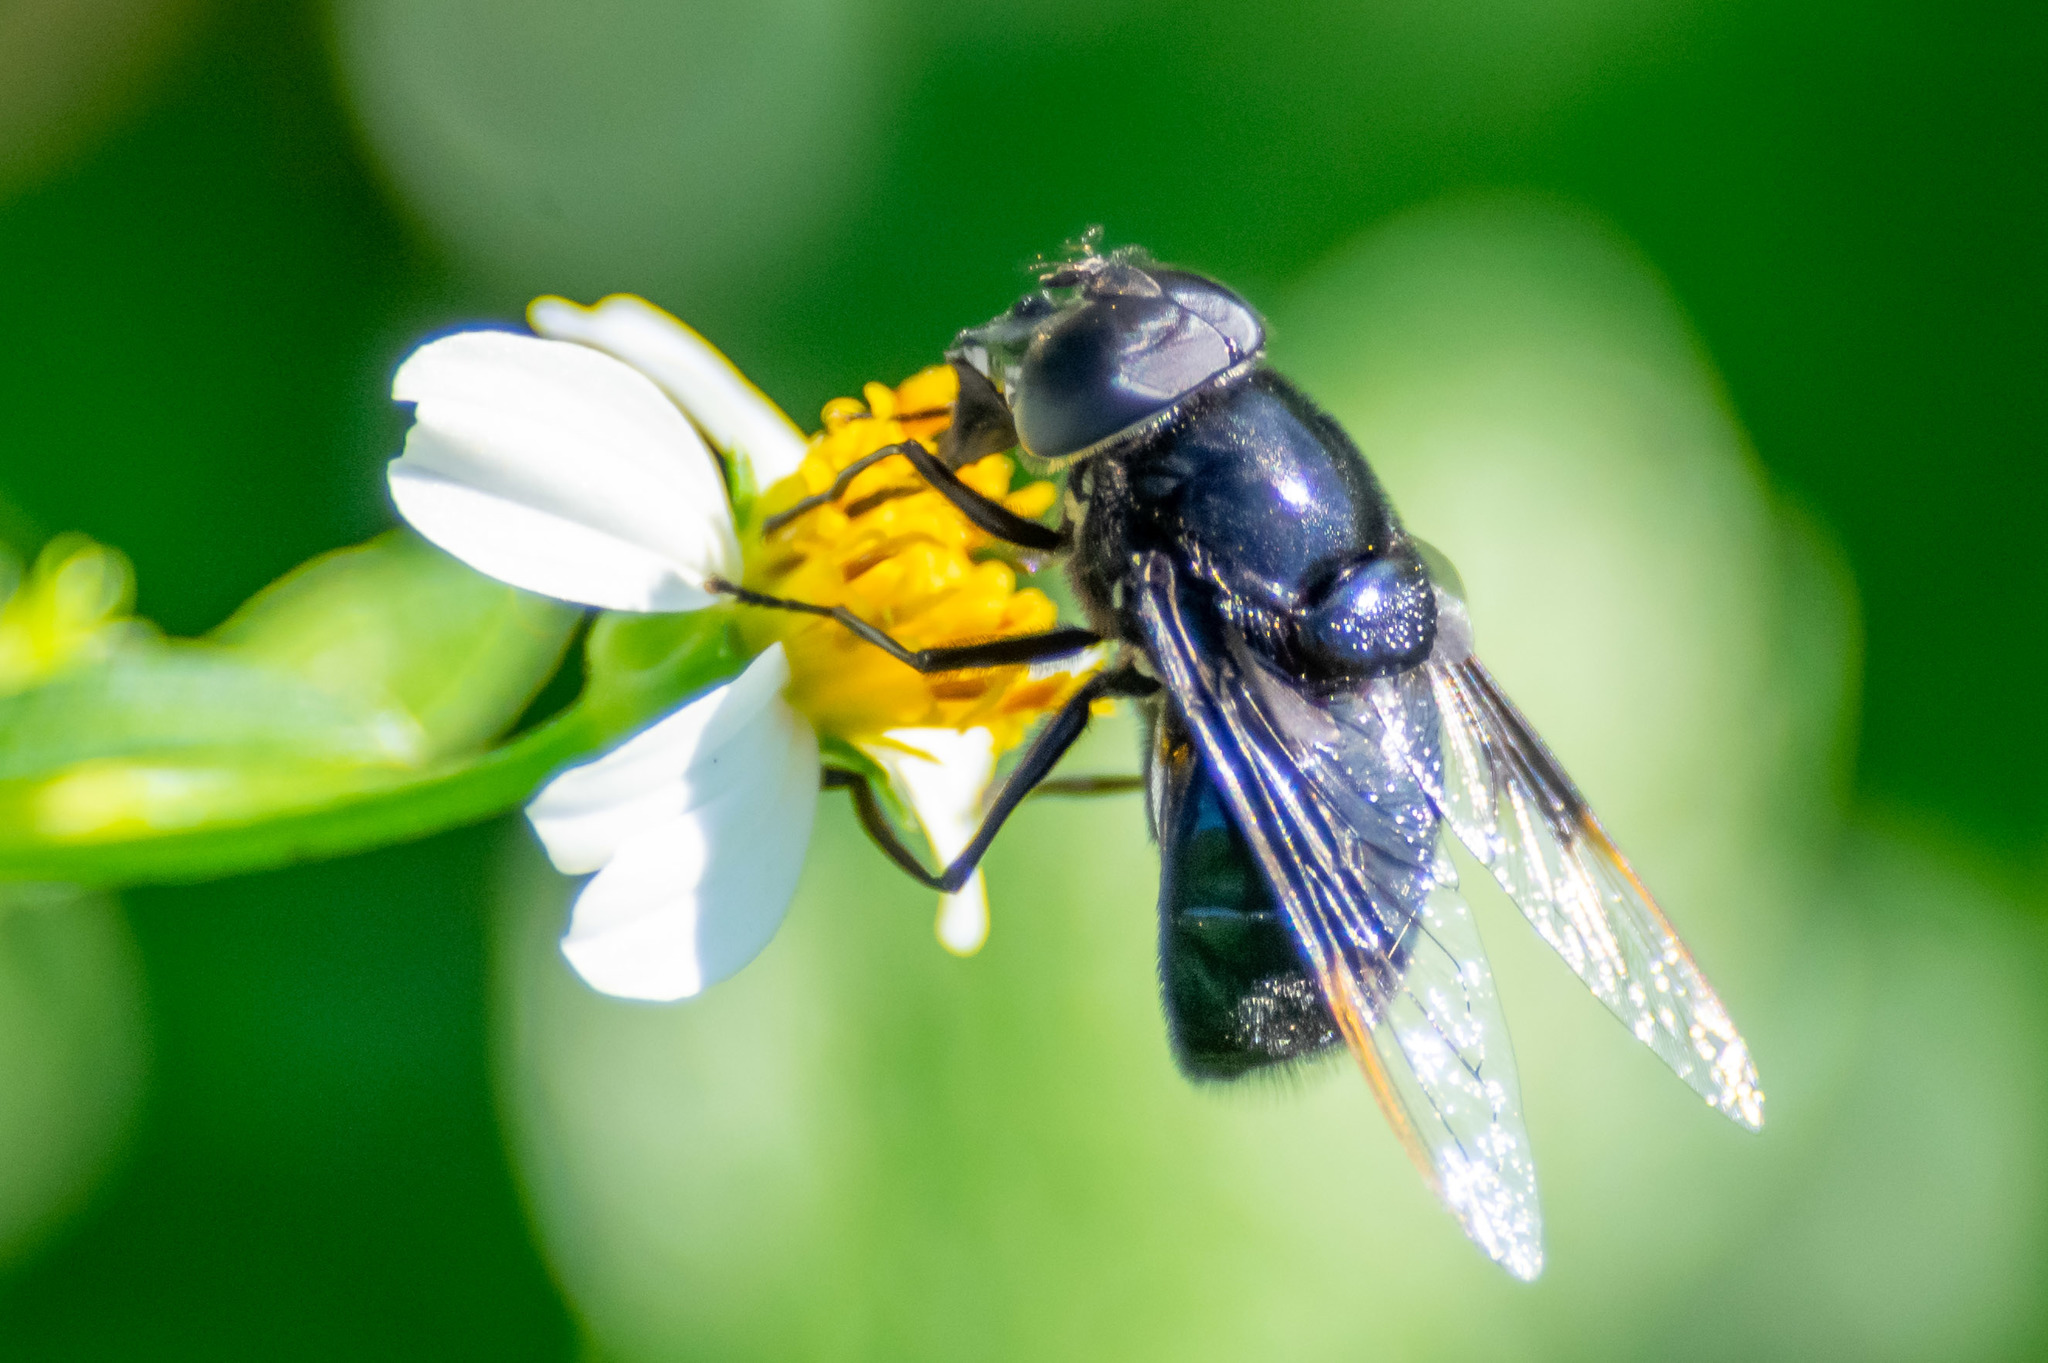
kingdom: Animalia
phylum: Arthropoda
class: Insecta
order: Diptera
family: Syrphidae
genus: Copestylum
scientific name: Copestylum mexicanum
